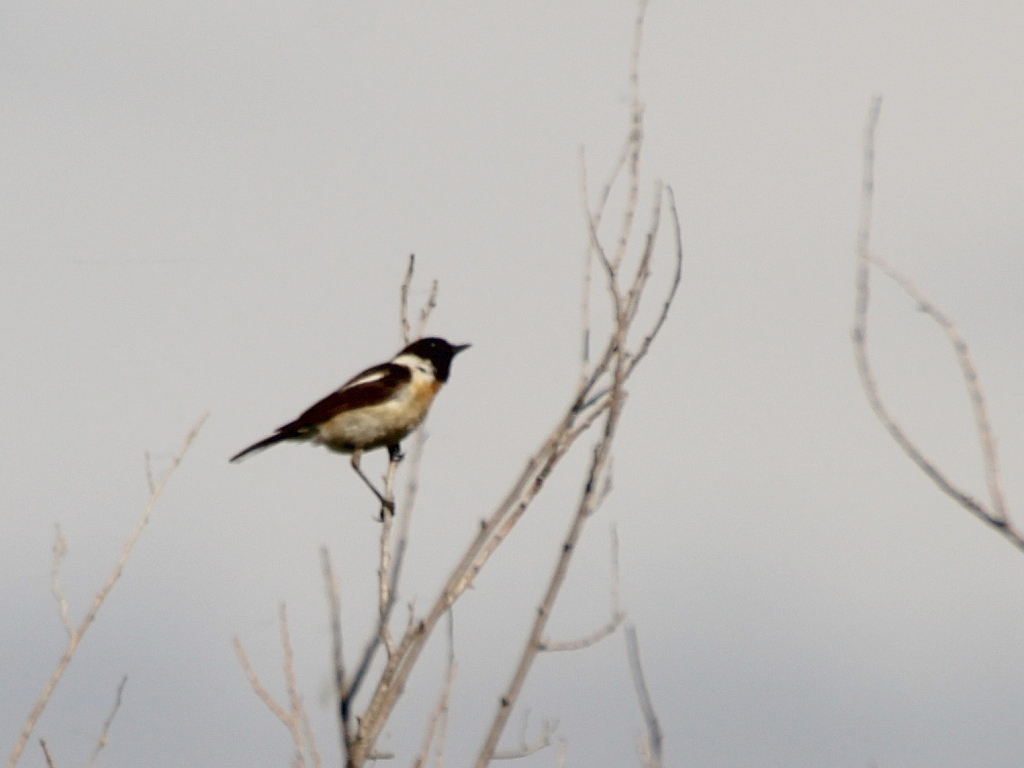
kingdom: Animalia
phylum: Chordata
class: Aves
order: Passeriformes
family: Muscicapidae
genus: Saxicola
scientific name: Saxicola maurus
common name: Siberian stonechat
